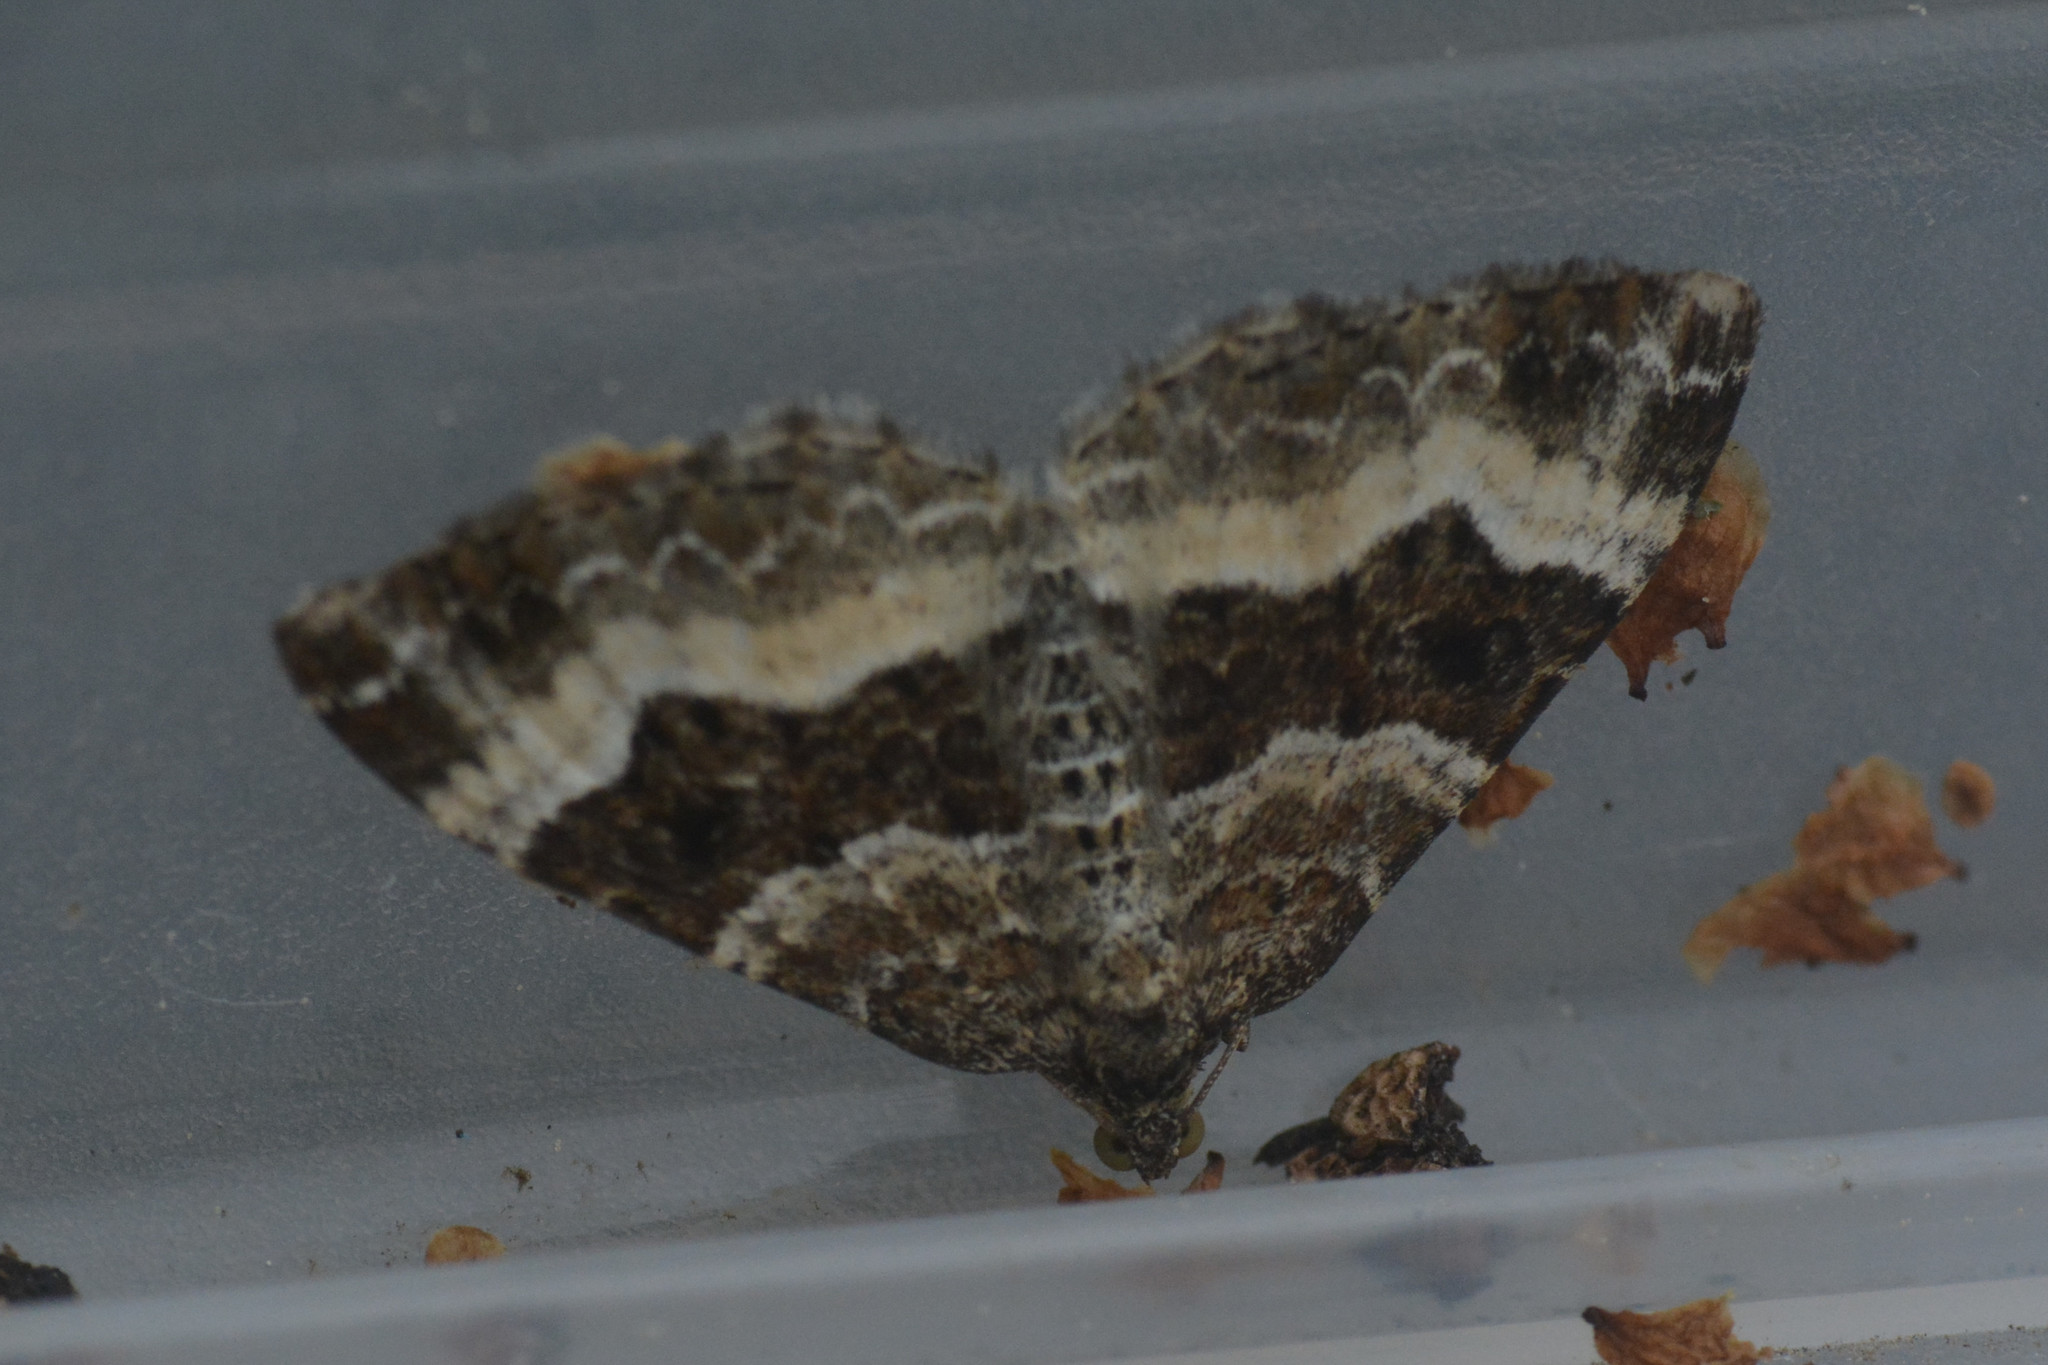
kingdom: Animalia
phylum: Arthropoda
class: Insecta
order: Lepidoptera
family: Geometridae
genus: Epirrhoe
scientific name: Epirrhoe alternata
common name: Common carpet
